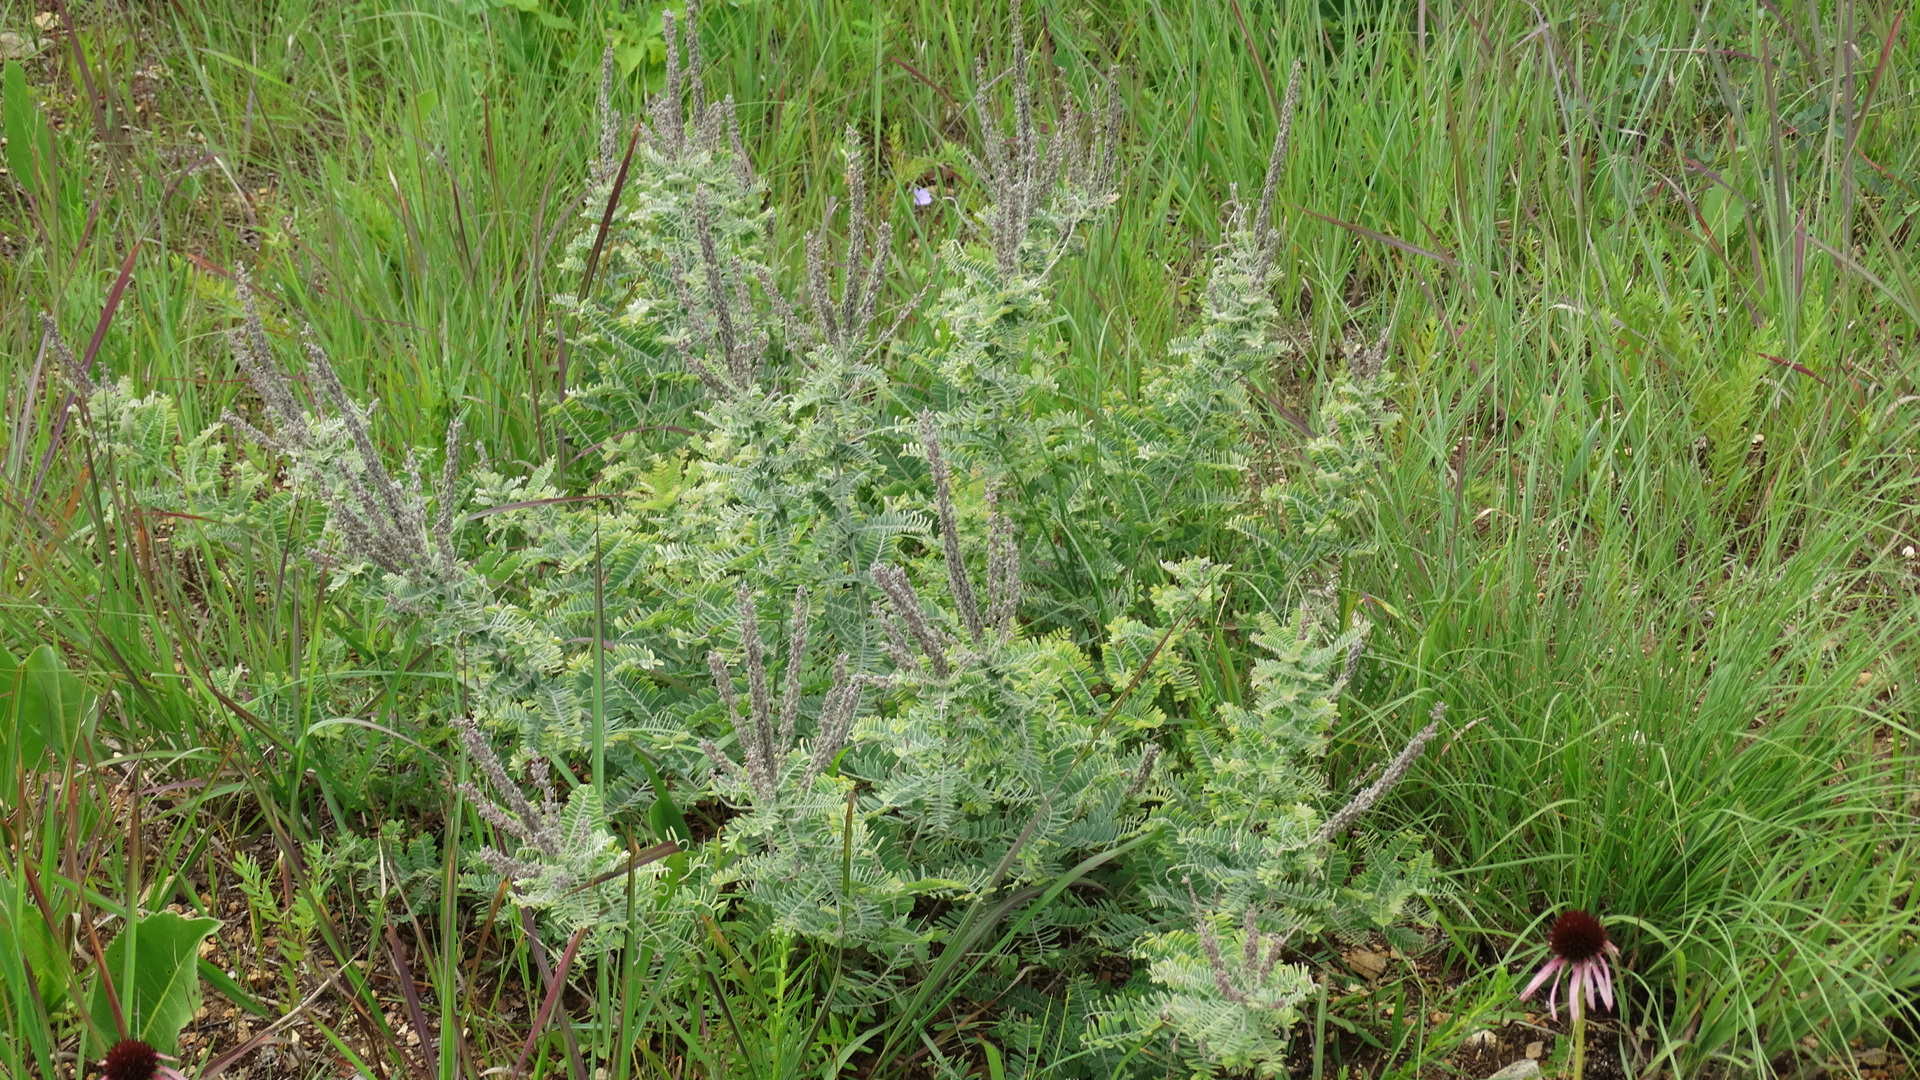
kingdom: Plantae
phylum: Tracheophyta
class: Magnoliopsida
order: Fabales
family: Fabaceae
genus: Amorpha
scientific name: Amorpha canescens
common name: Leadplant
